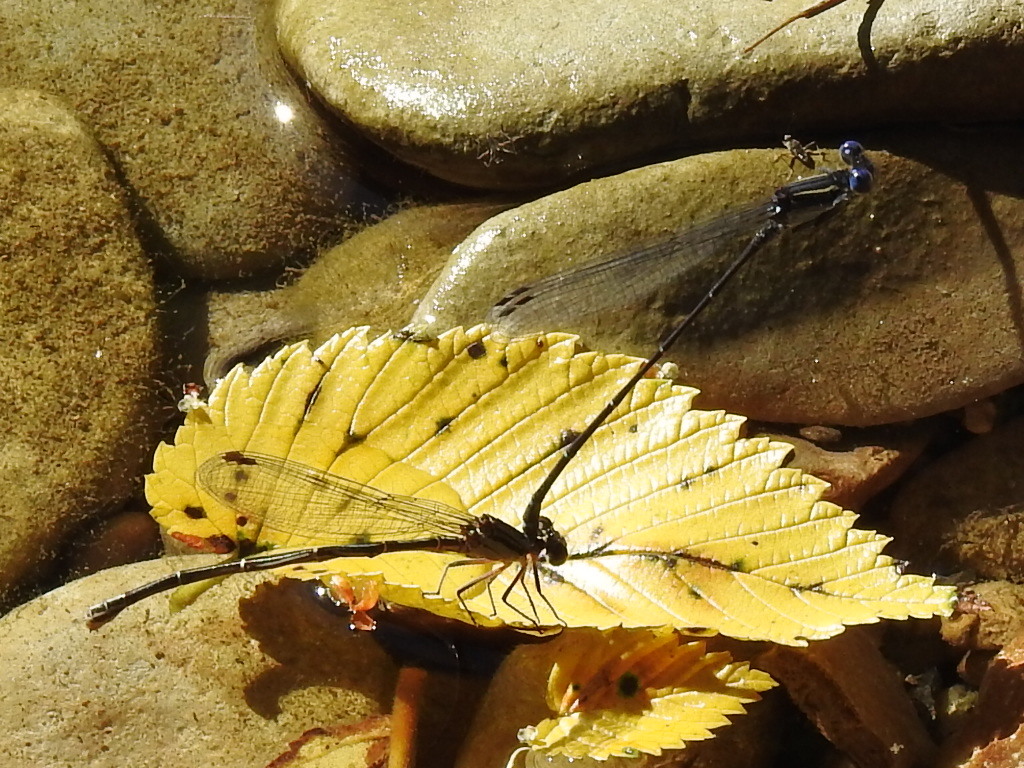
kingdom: Animalia
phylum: Arthropoda
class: Insecta
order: Odonata
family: Coenagrionidae
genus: Argia
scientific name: Argia translata
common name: Dusky dancer
